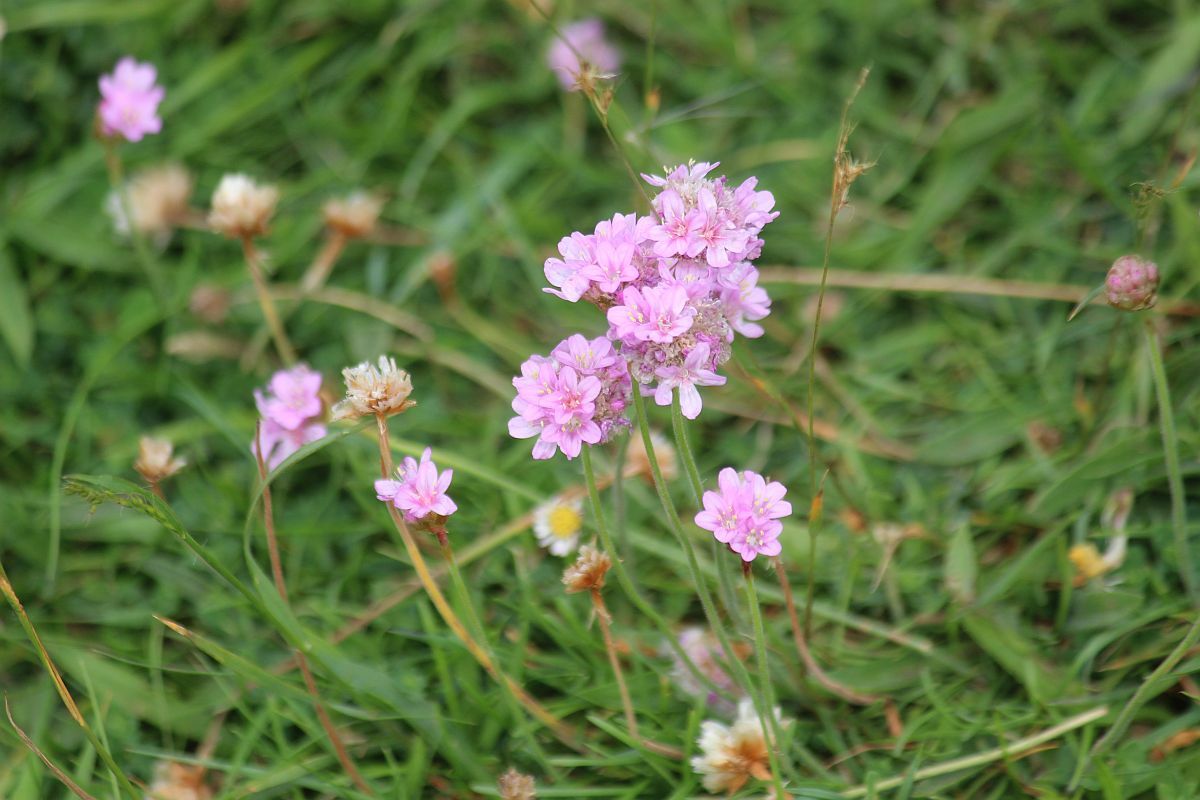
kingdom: Plantae
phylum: Tracheophyta
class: Magnoliopsida
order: Caryophyllales
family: Plumbaginaceae
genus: Armeria
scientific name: Armeria maritima
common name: Thrift
